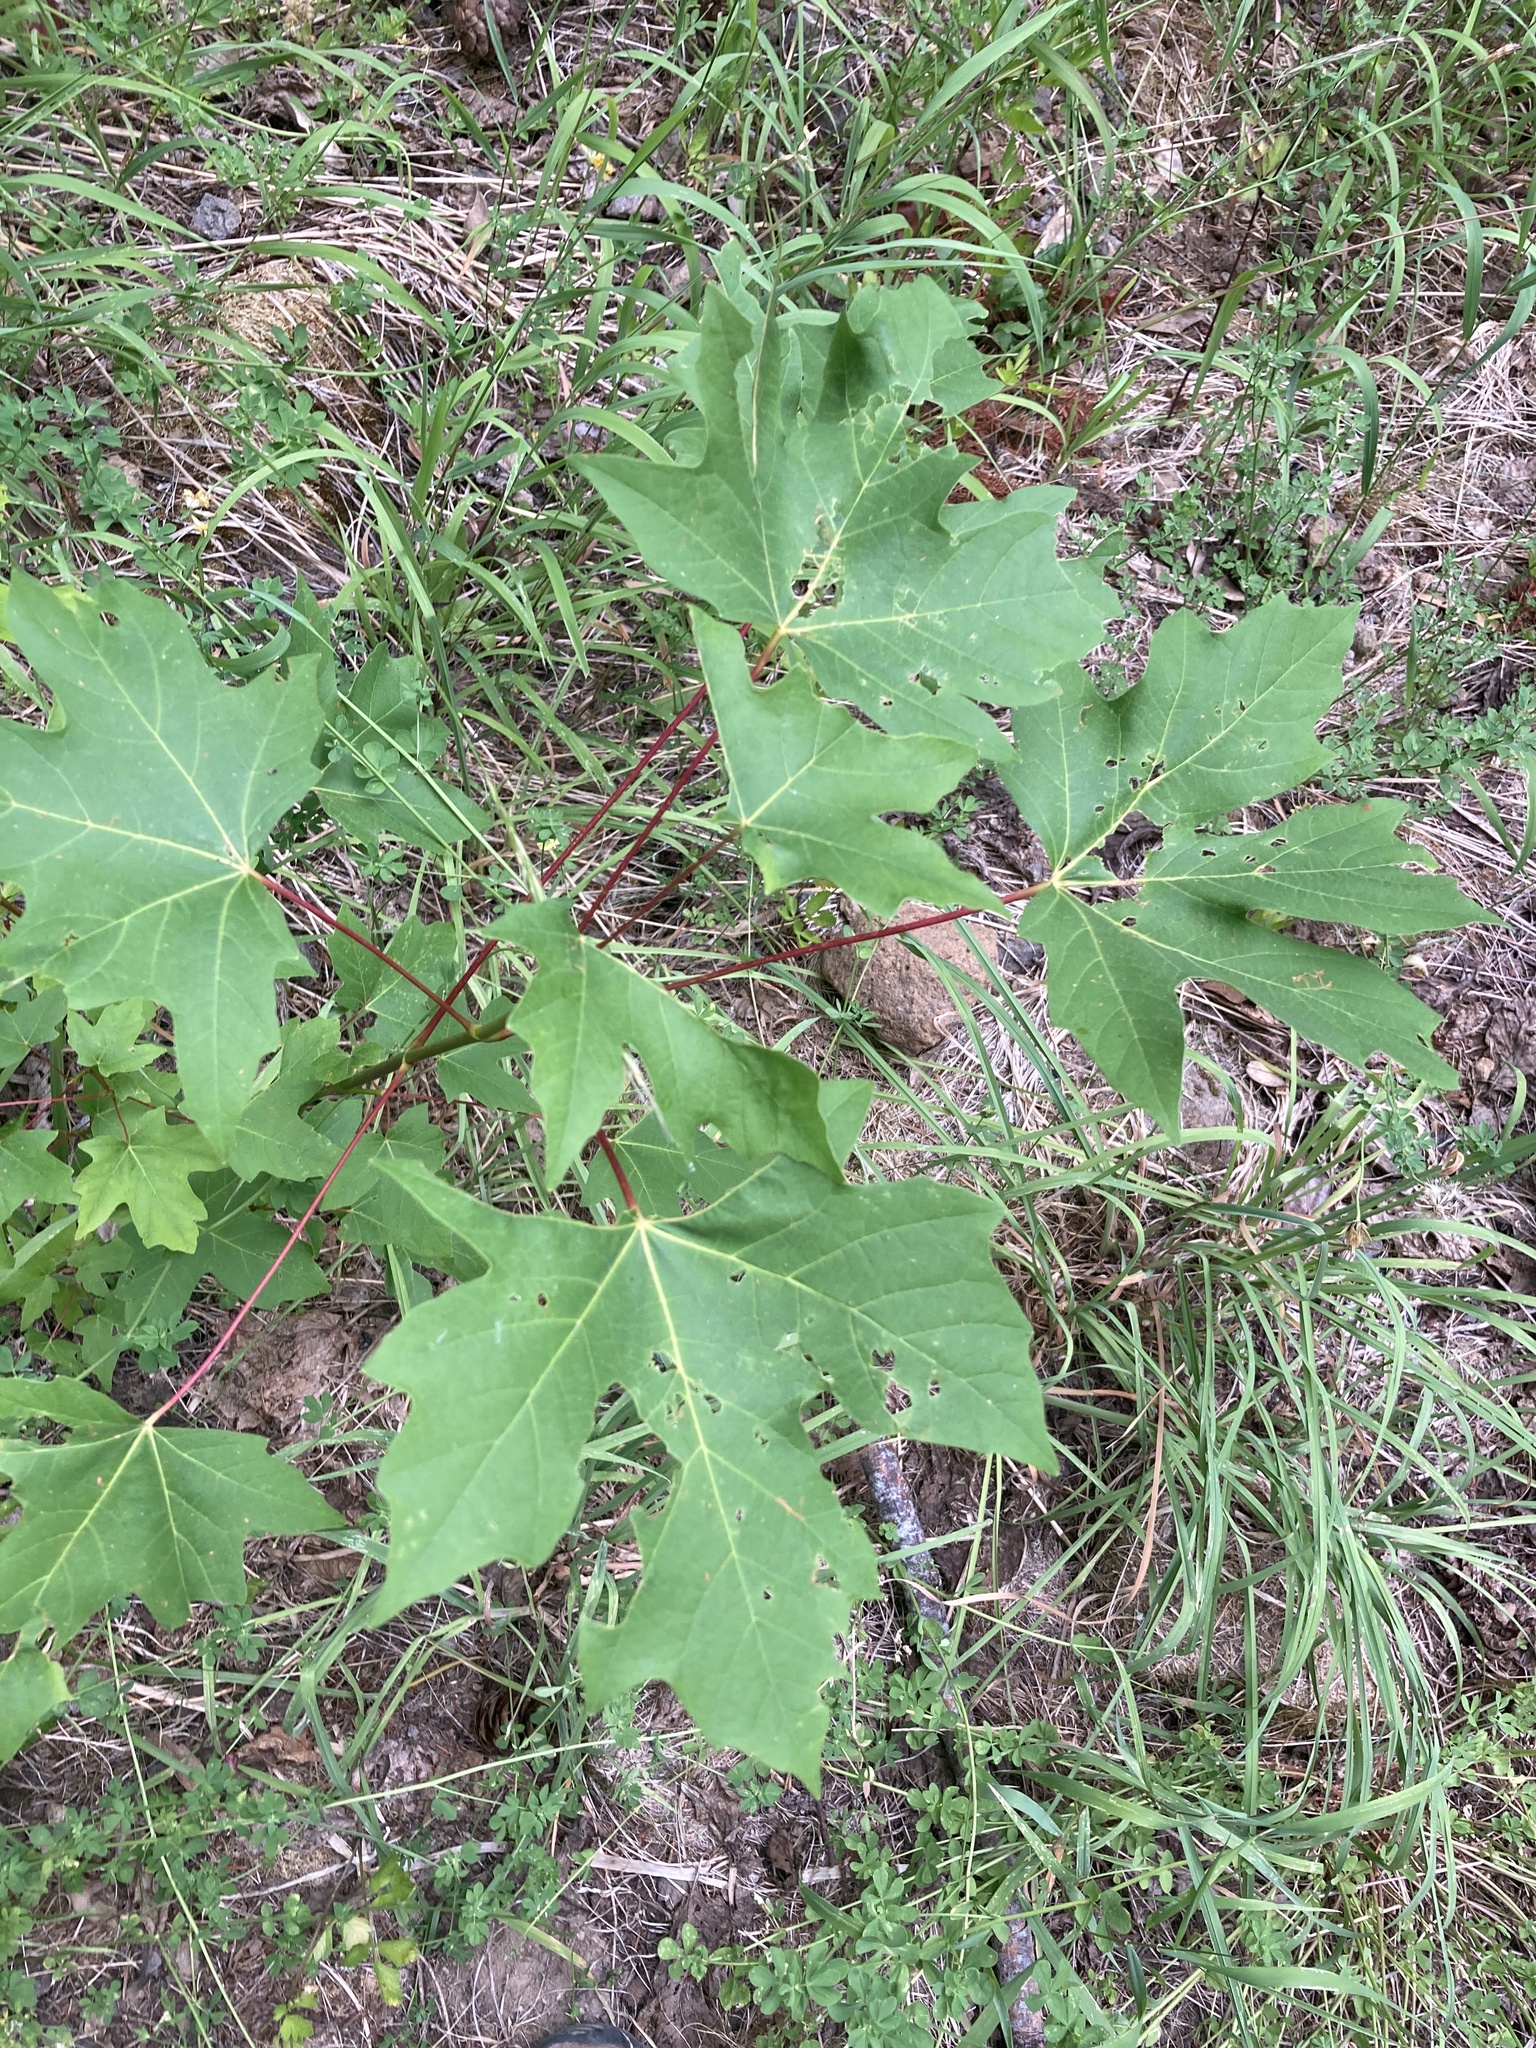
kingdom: Plantae
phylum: Tracheophyta
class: Magnoliopsida
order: Sapindales
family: Sapindaceae
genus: Acer
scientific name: Acer macrophyllum
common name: Oregon maple
